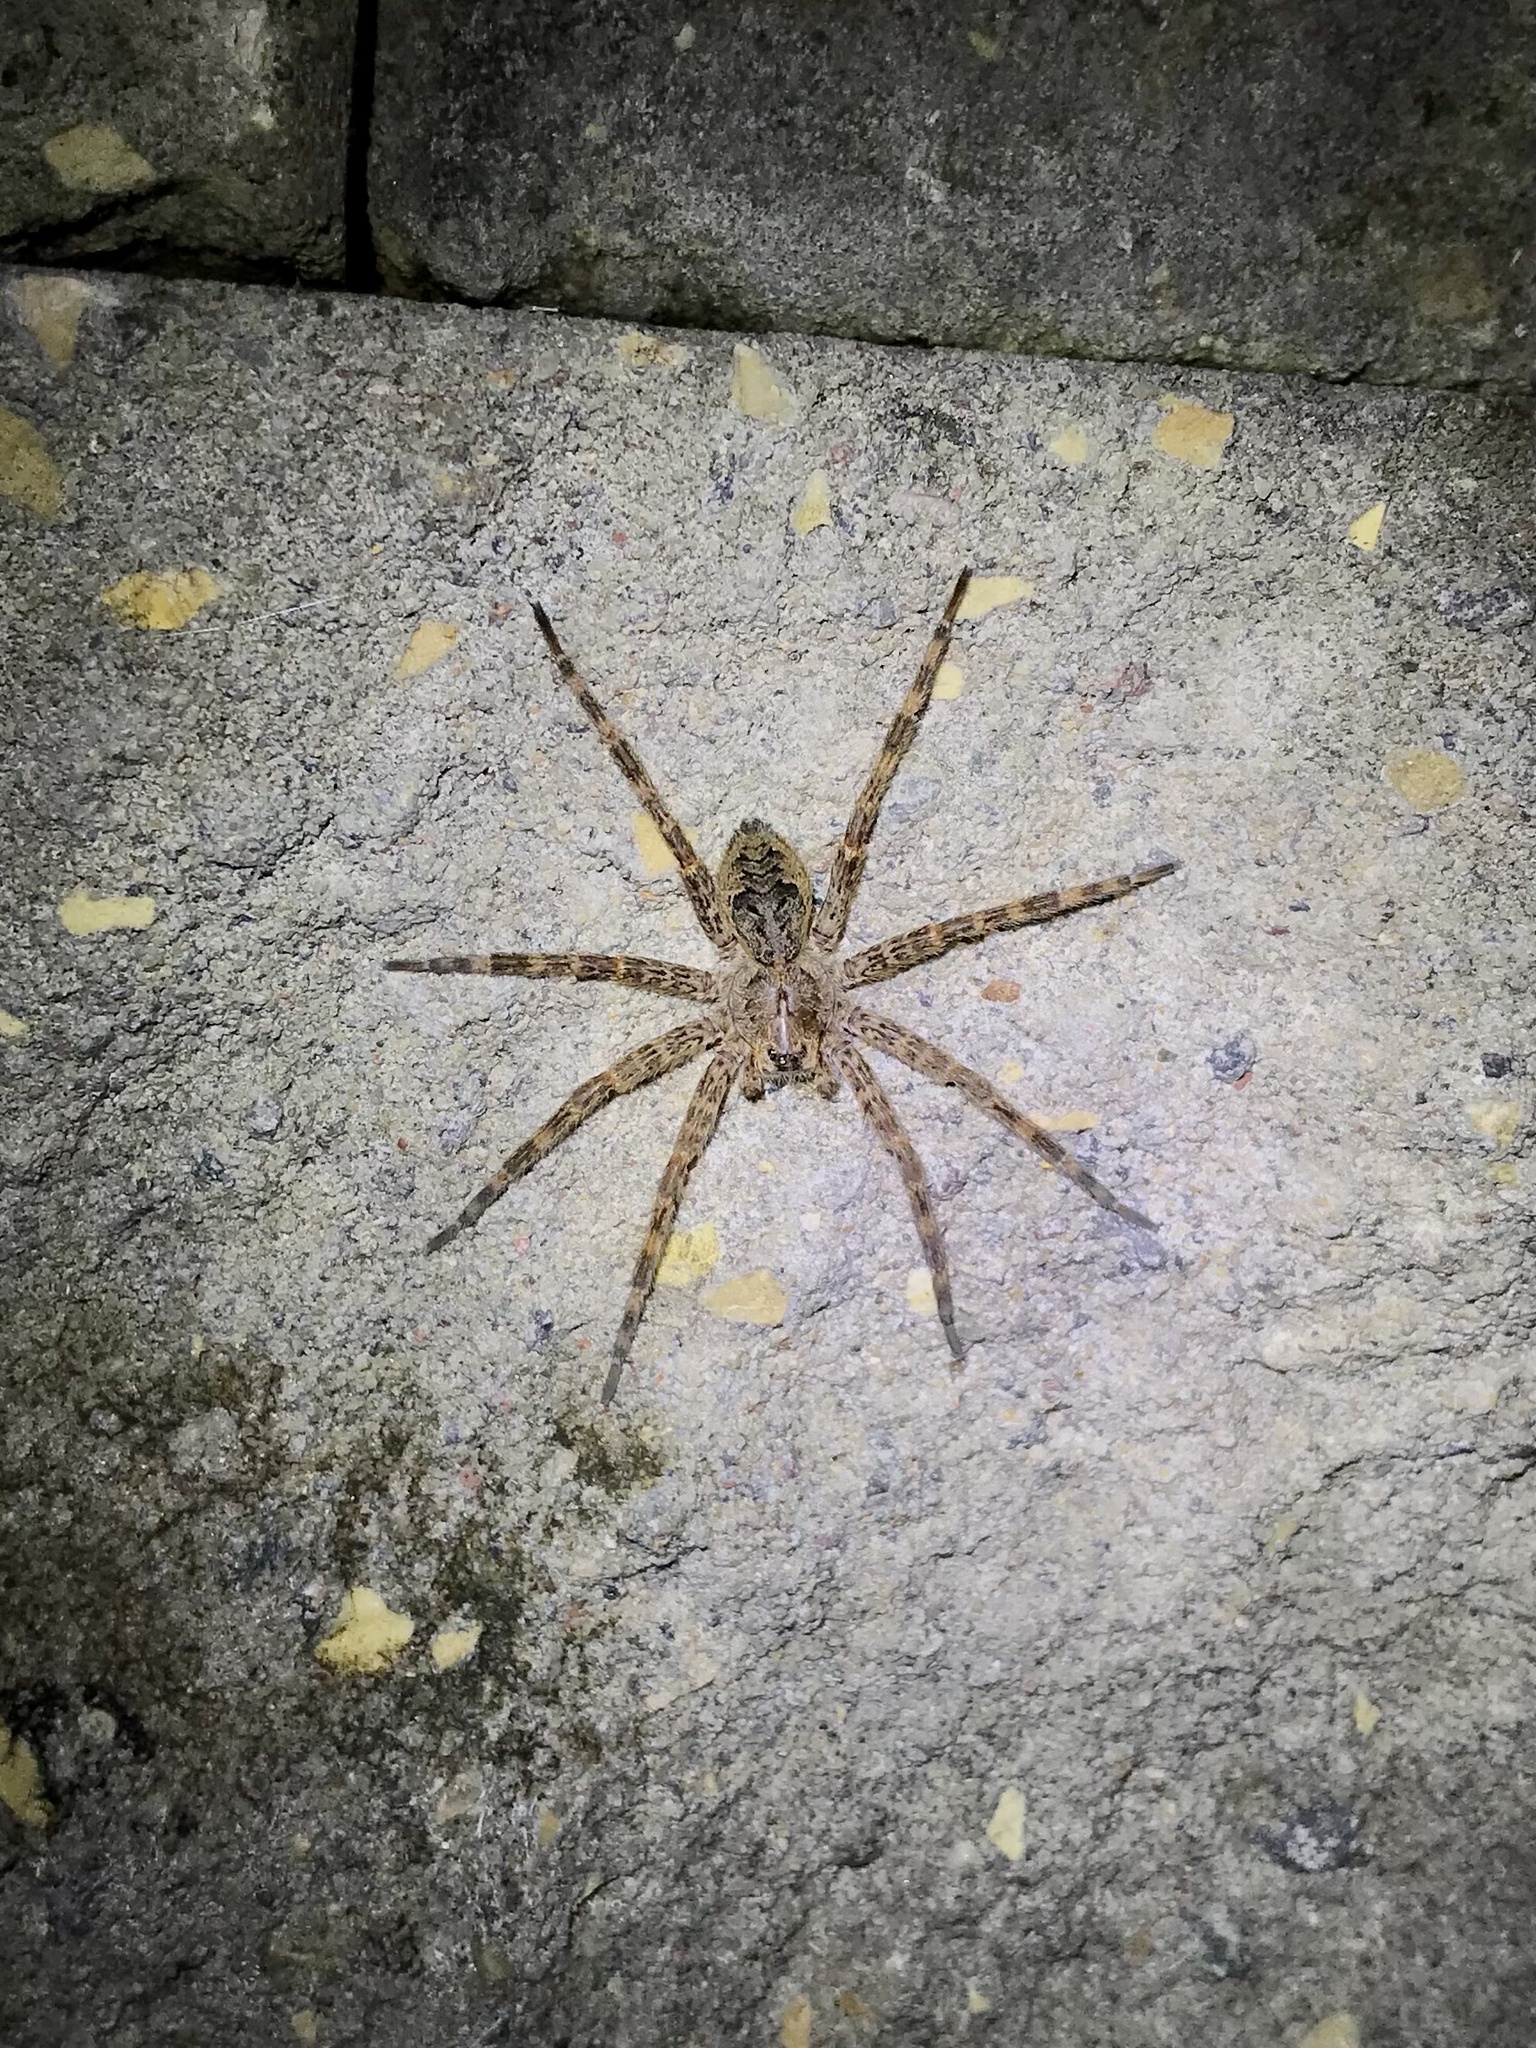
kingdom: Animalia
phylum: Arthropoda
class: Arachnida
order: Araneae
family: Pisauridae
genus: Dolomedes
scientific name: Dolomedes tenebrosus
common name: Dark fishing spider
